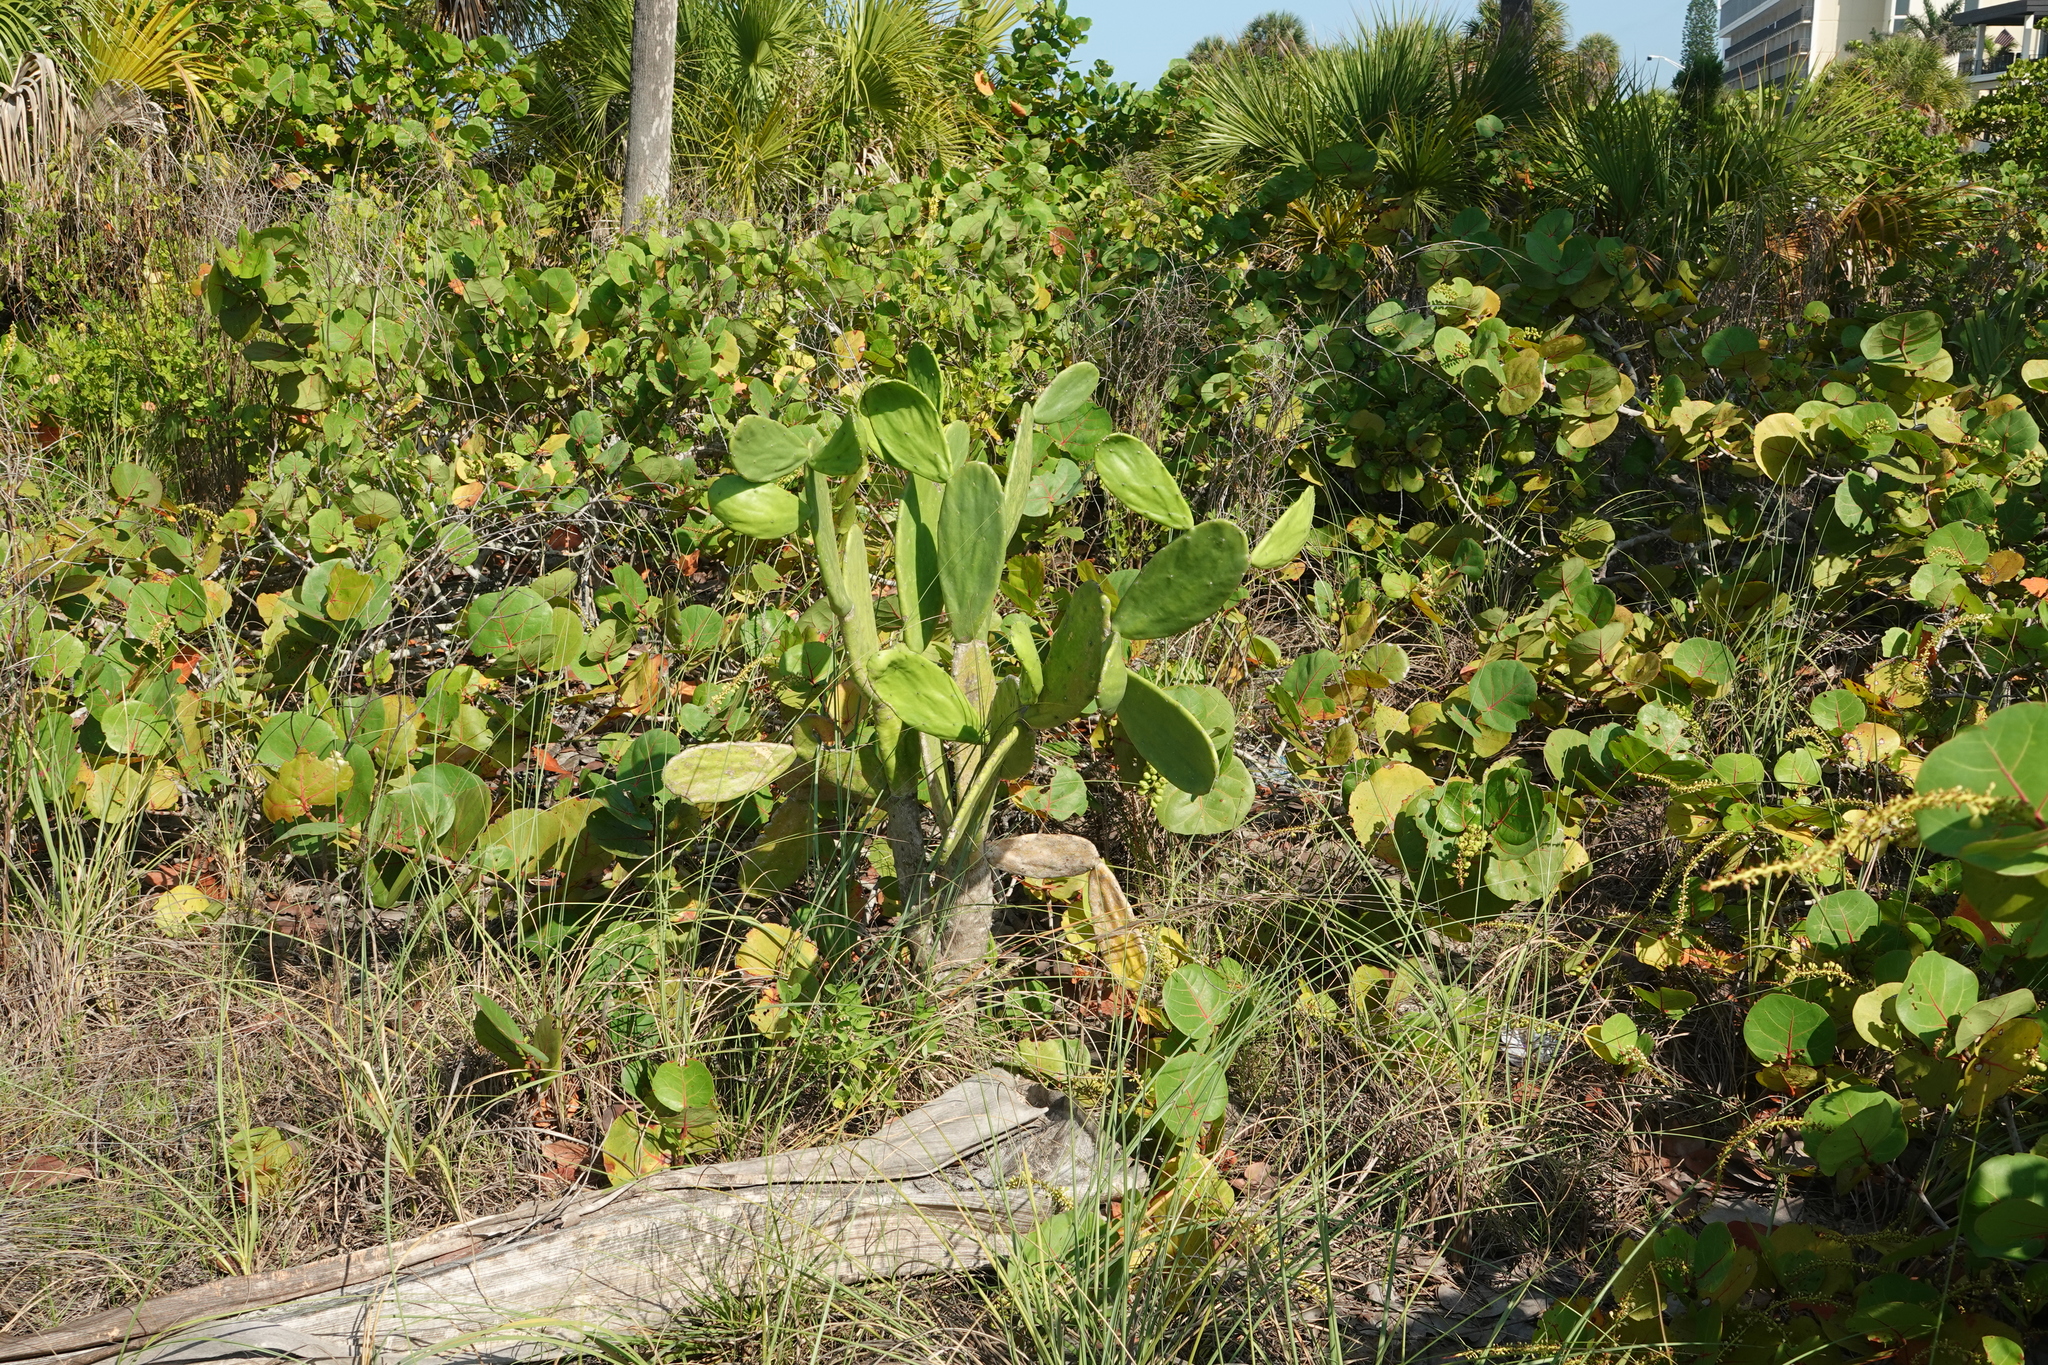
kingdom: Plantae
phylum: Tracheophyta
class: Magnoliopsida
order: Caryophyllales
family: Cactaceae
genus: Opuntia
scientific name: Opuntia cochenillifera
